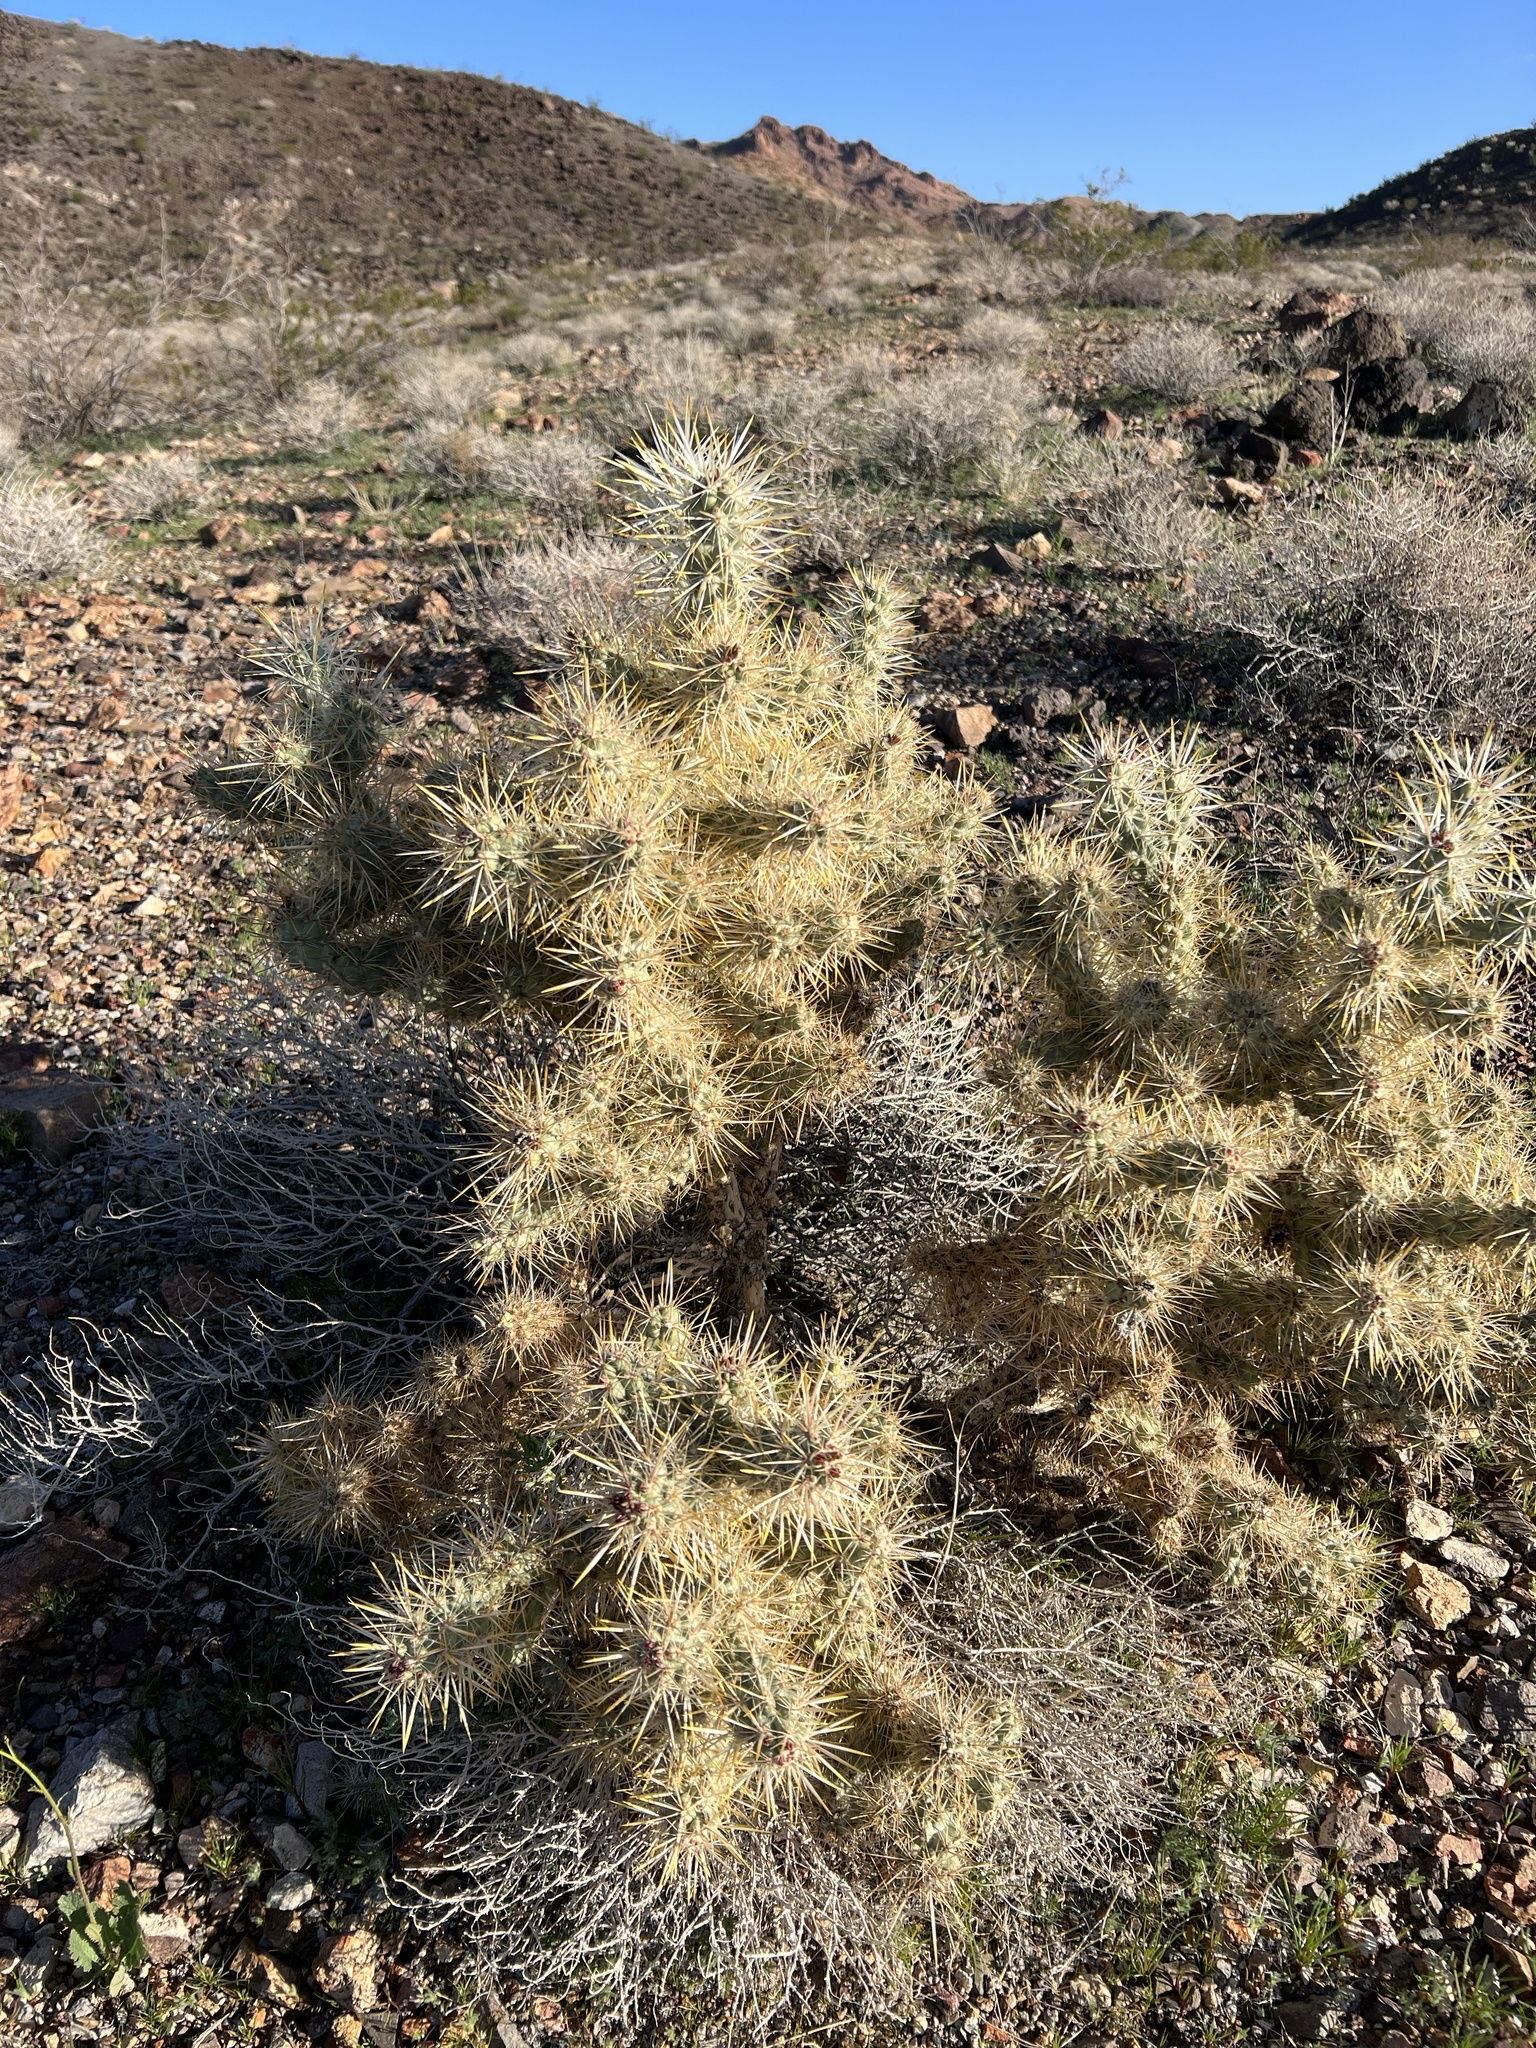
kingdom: Plantae
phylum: Tracheophyta
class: Magnoliopsida
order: Caryophyllales
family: Cactaceae
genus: Cylindropuntia
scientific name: Cylindropuntia echinocarpa
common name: Ground cholla
